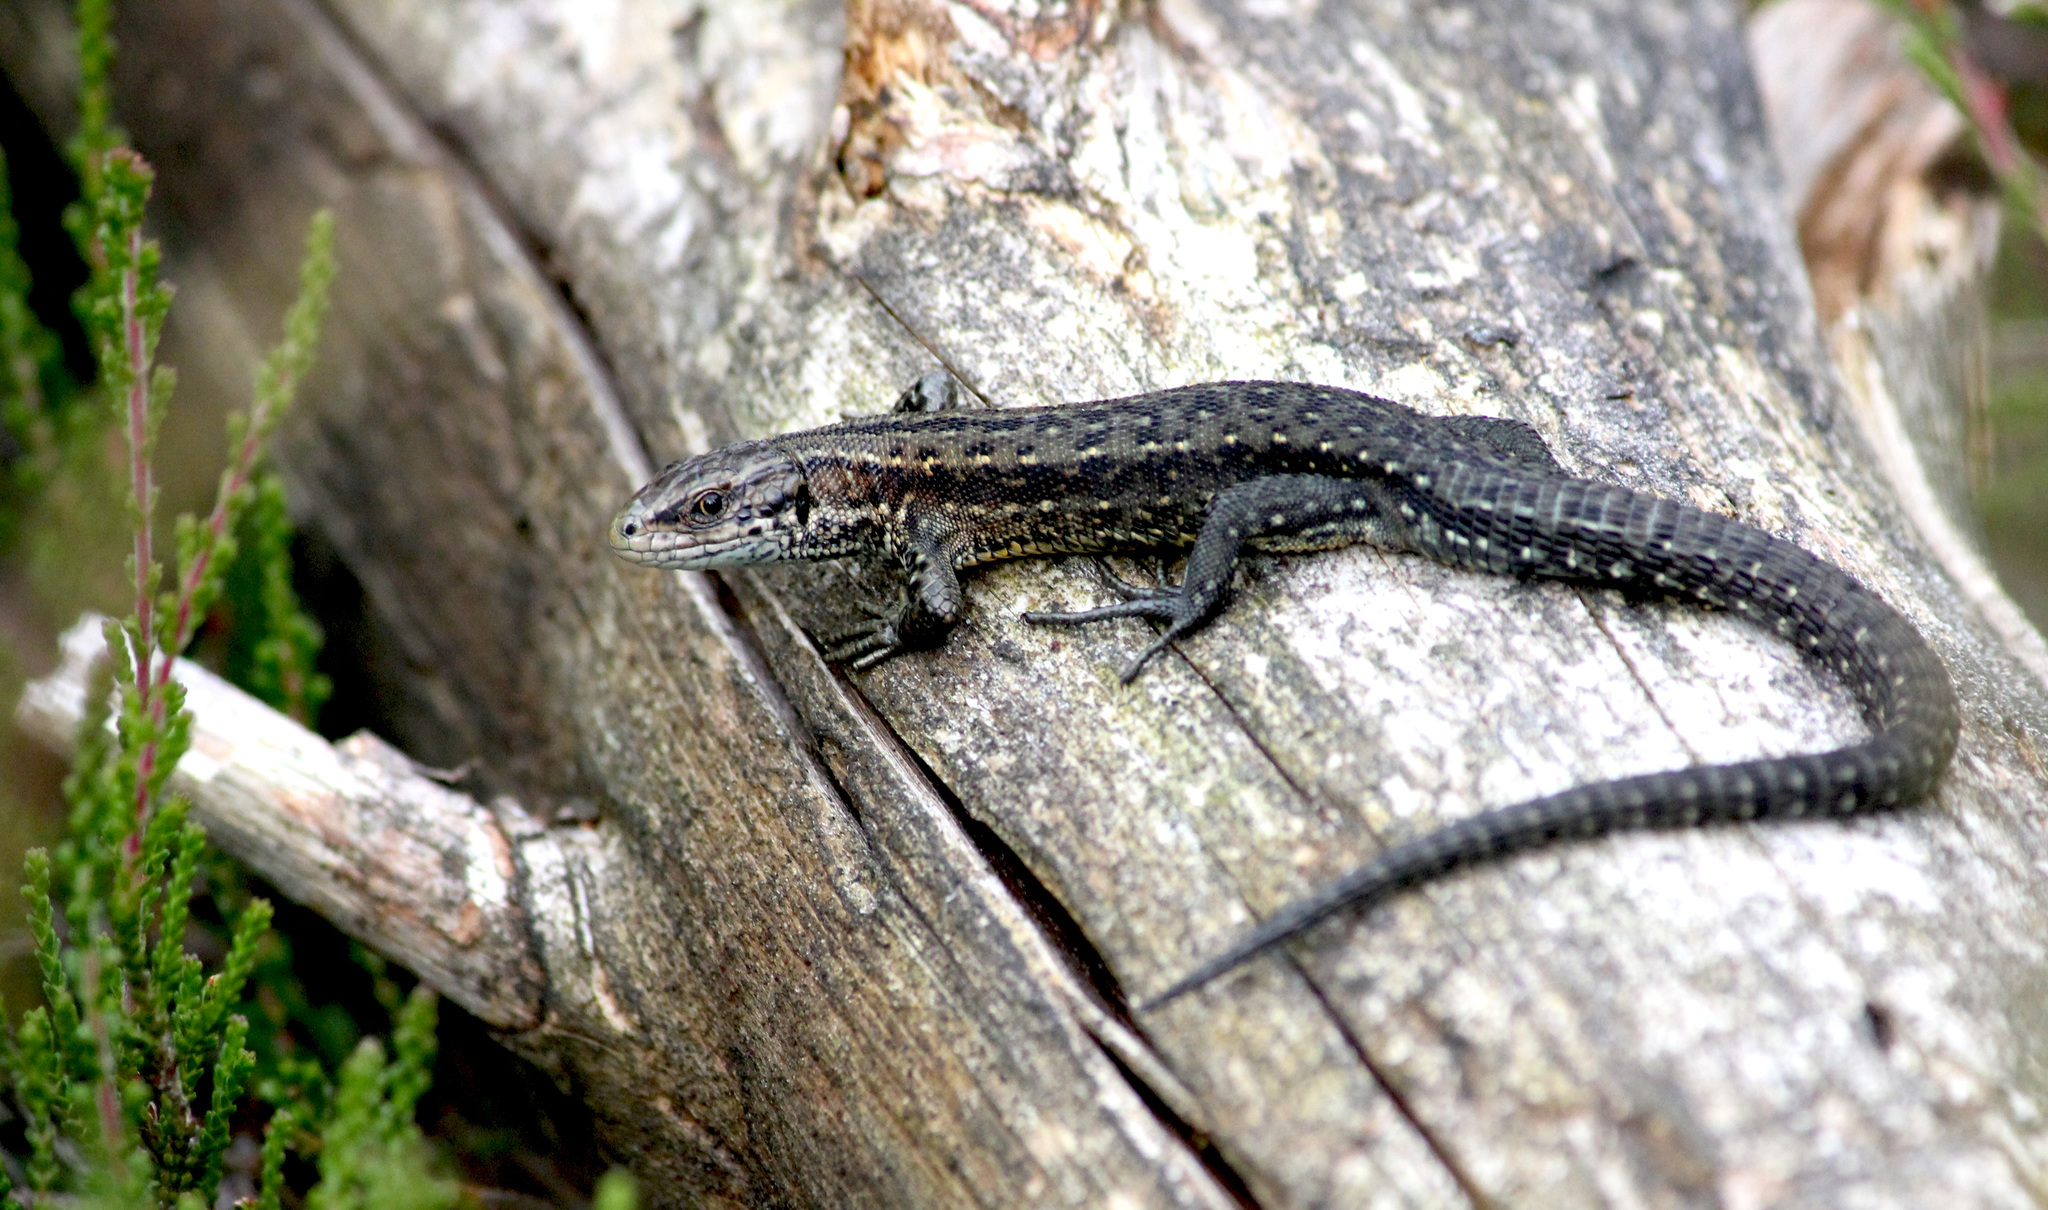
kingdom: Animalia
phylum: Chordata
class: Squamata
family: Lacertidae
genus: Zootoca
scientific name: Zootoca vivipara
